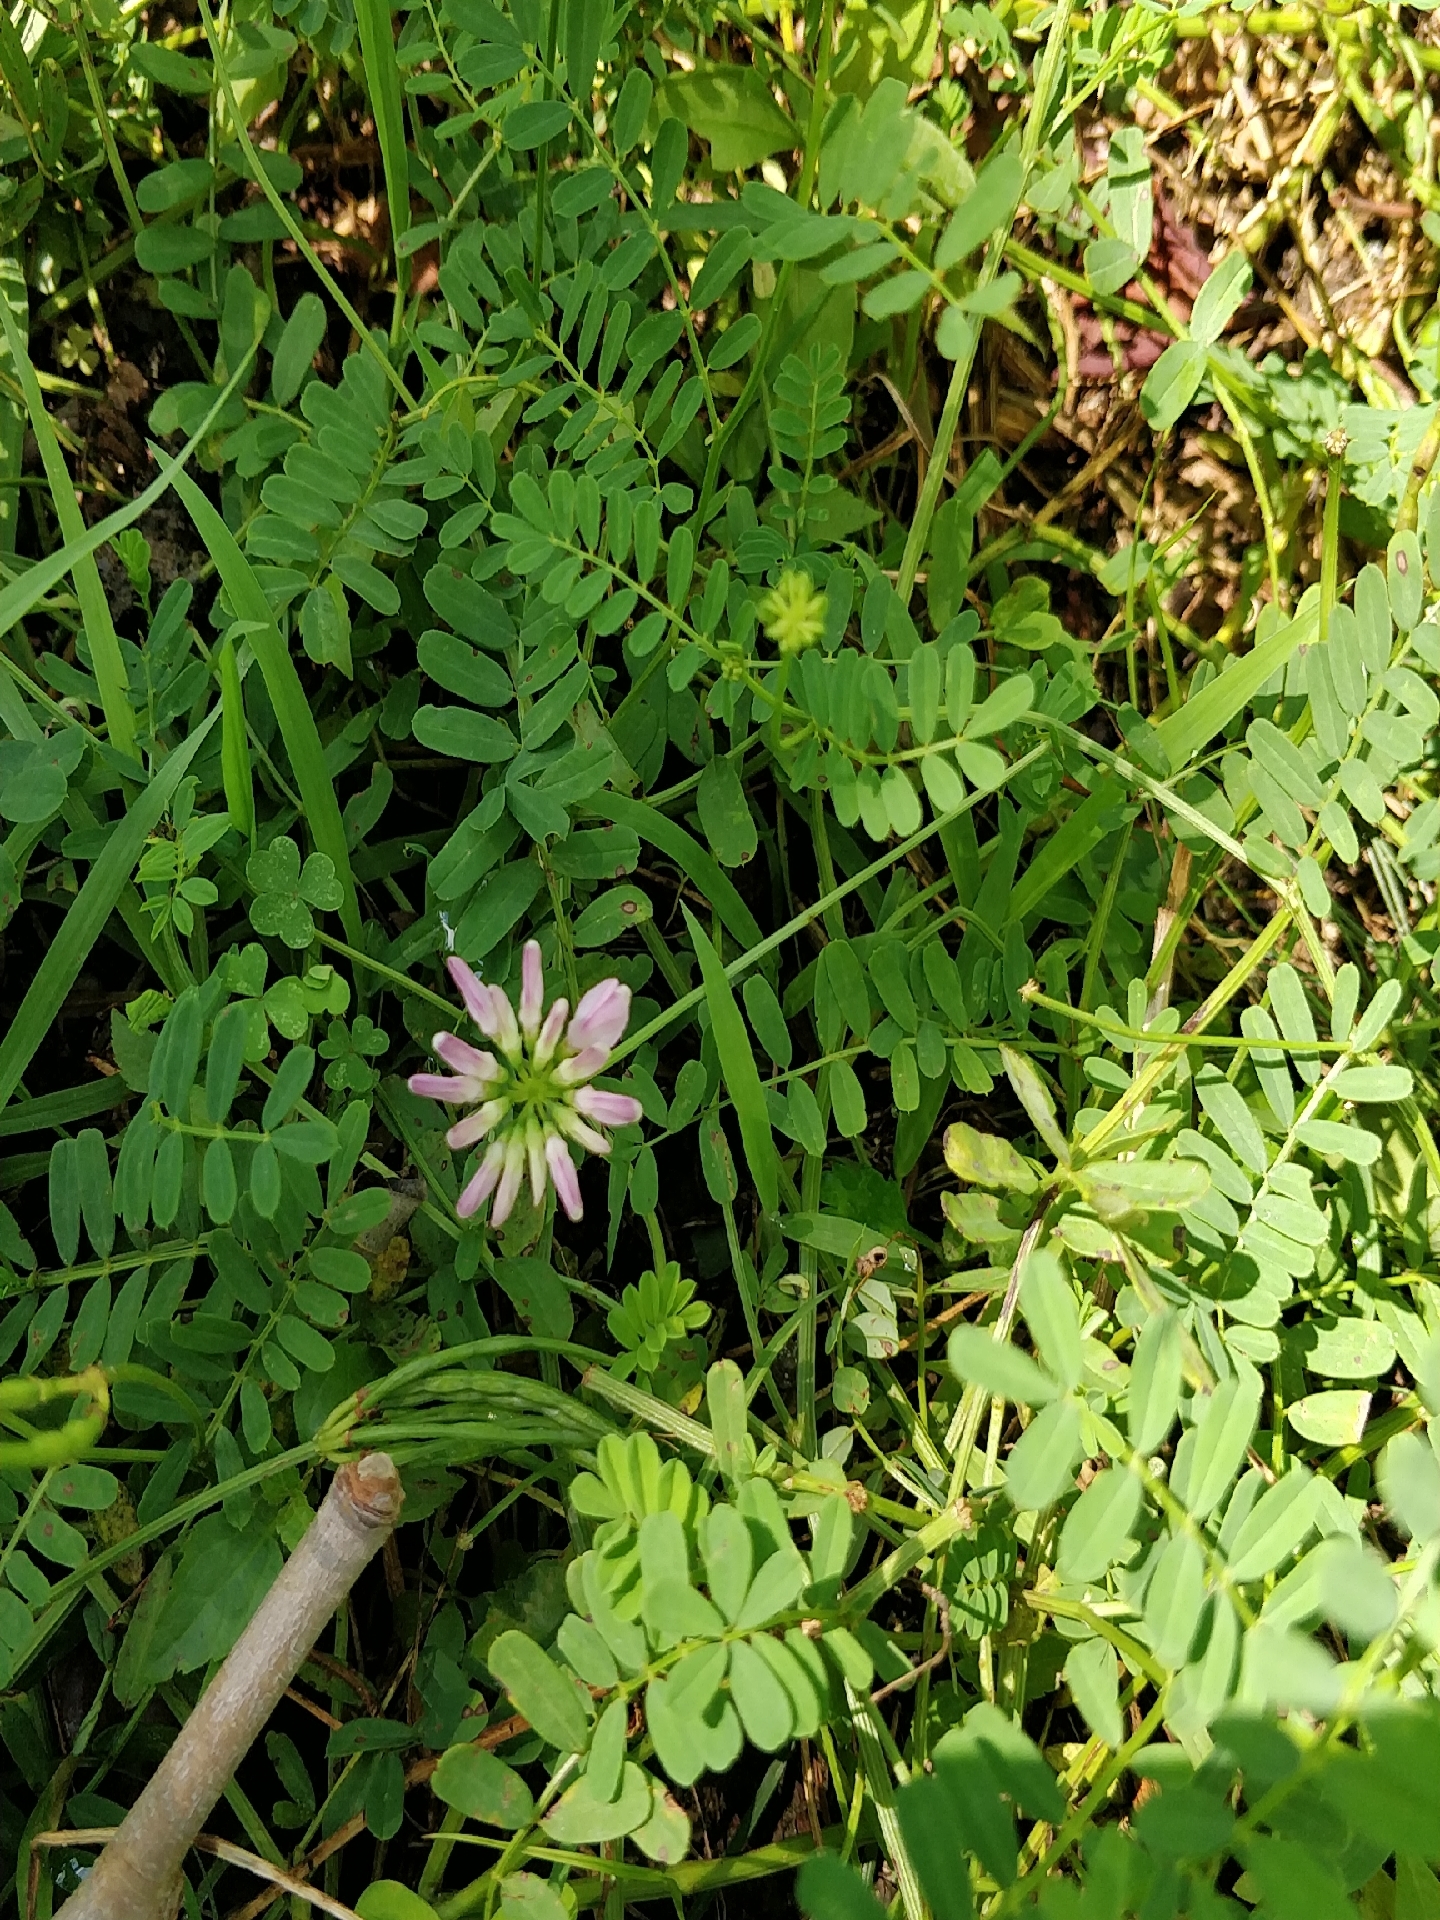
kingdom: Plantae
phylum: Tracheophyta
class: Magnoliopsida
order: Fabales
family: Fabaceae
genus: Coronilla
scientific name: Coronilla varia
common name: Crownvetch
